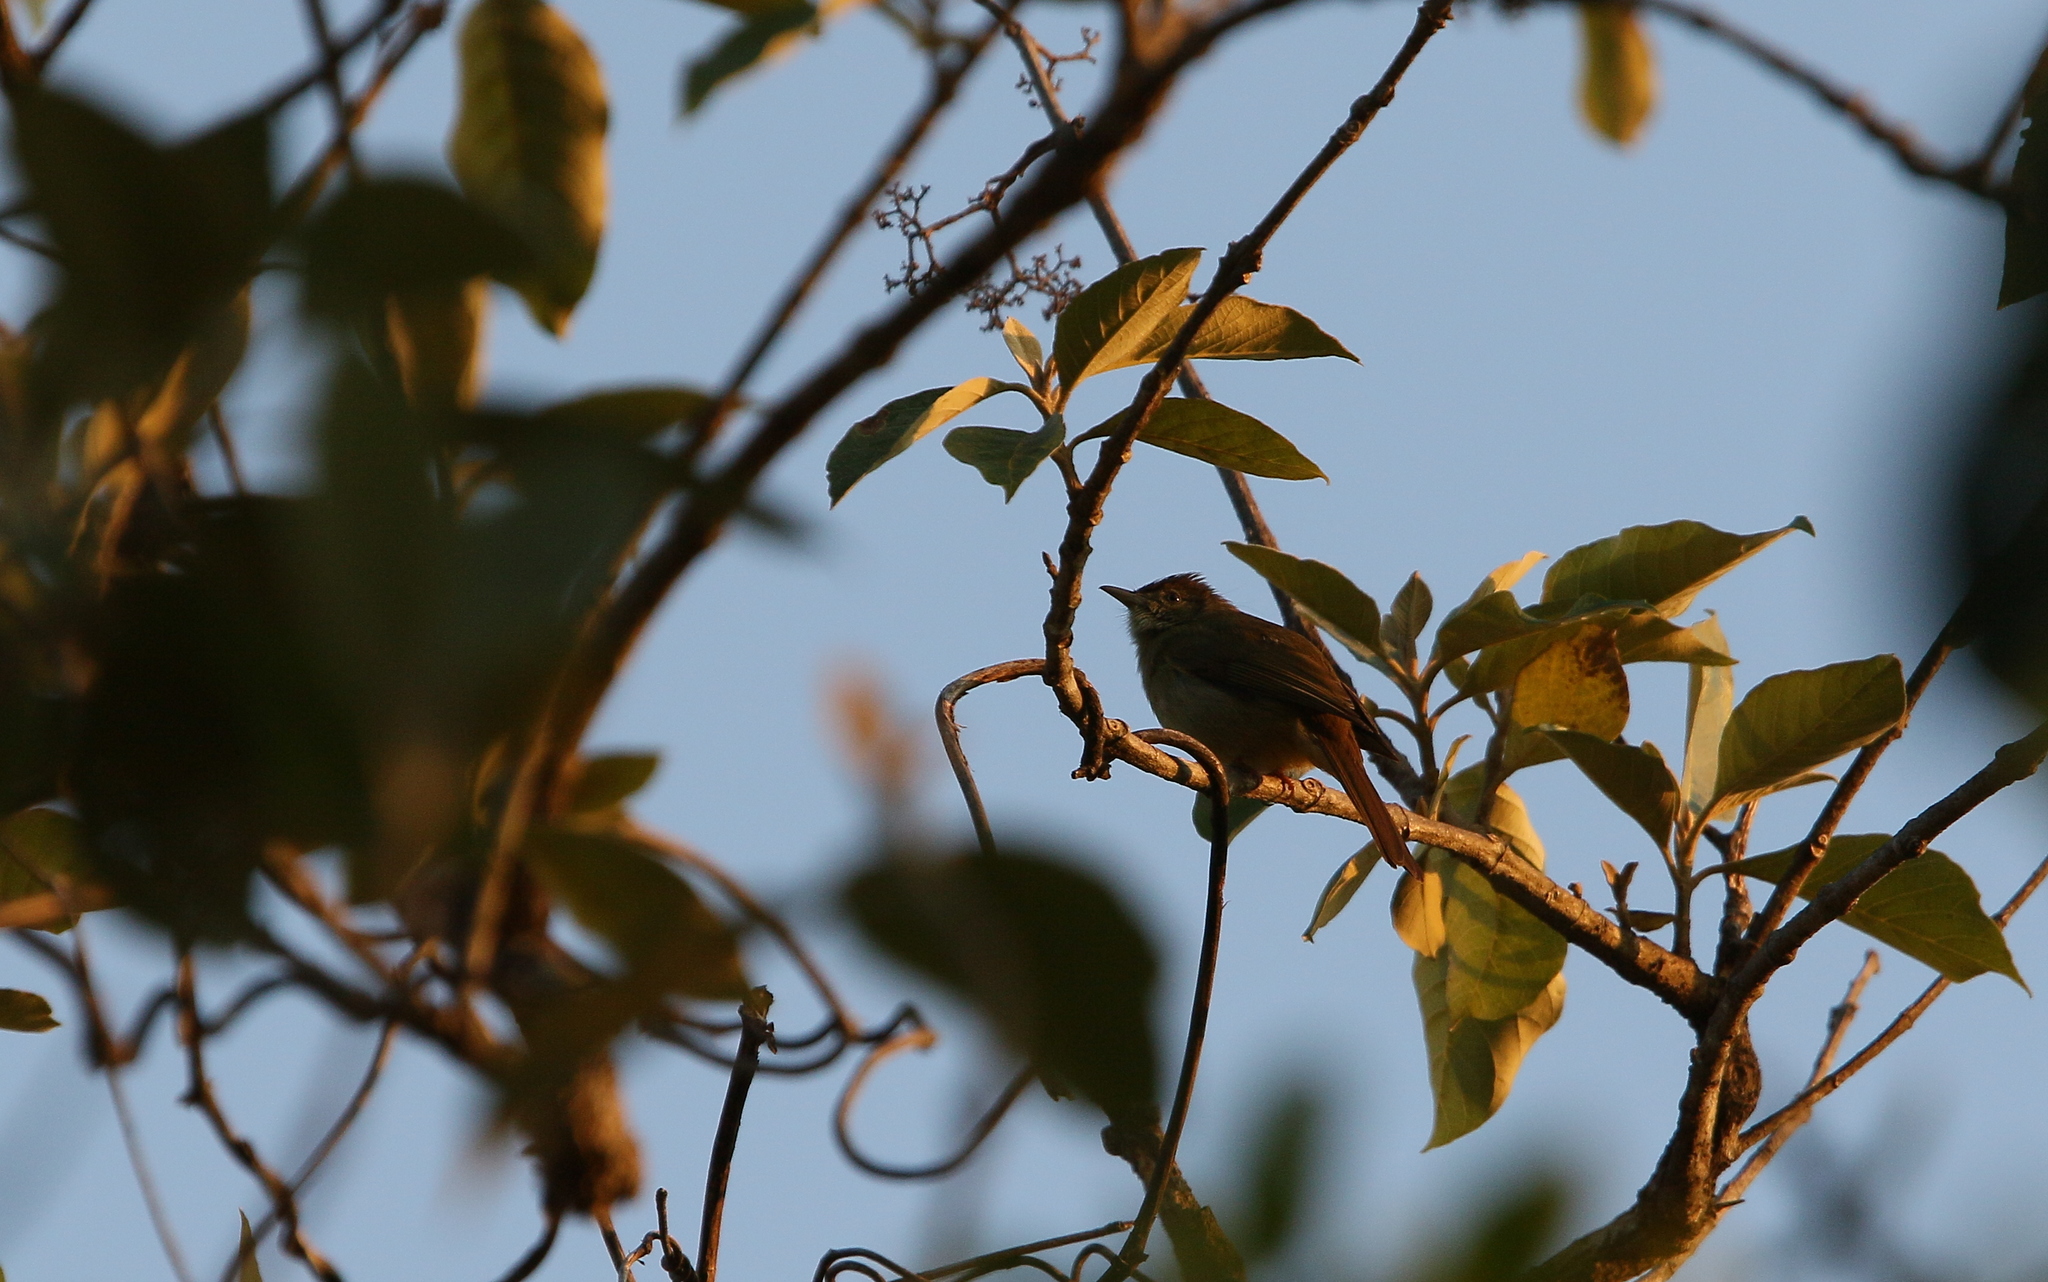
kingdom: Animalia
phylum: Chordata
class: Aves
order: Passeriformes
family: Pycnonotidae
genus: Iole
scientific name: Iole propinqua
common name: Grey-eyed bulbul
